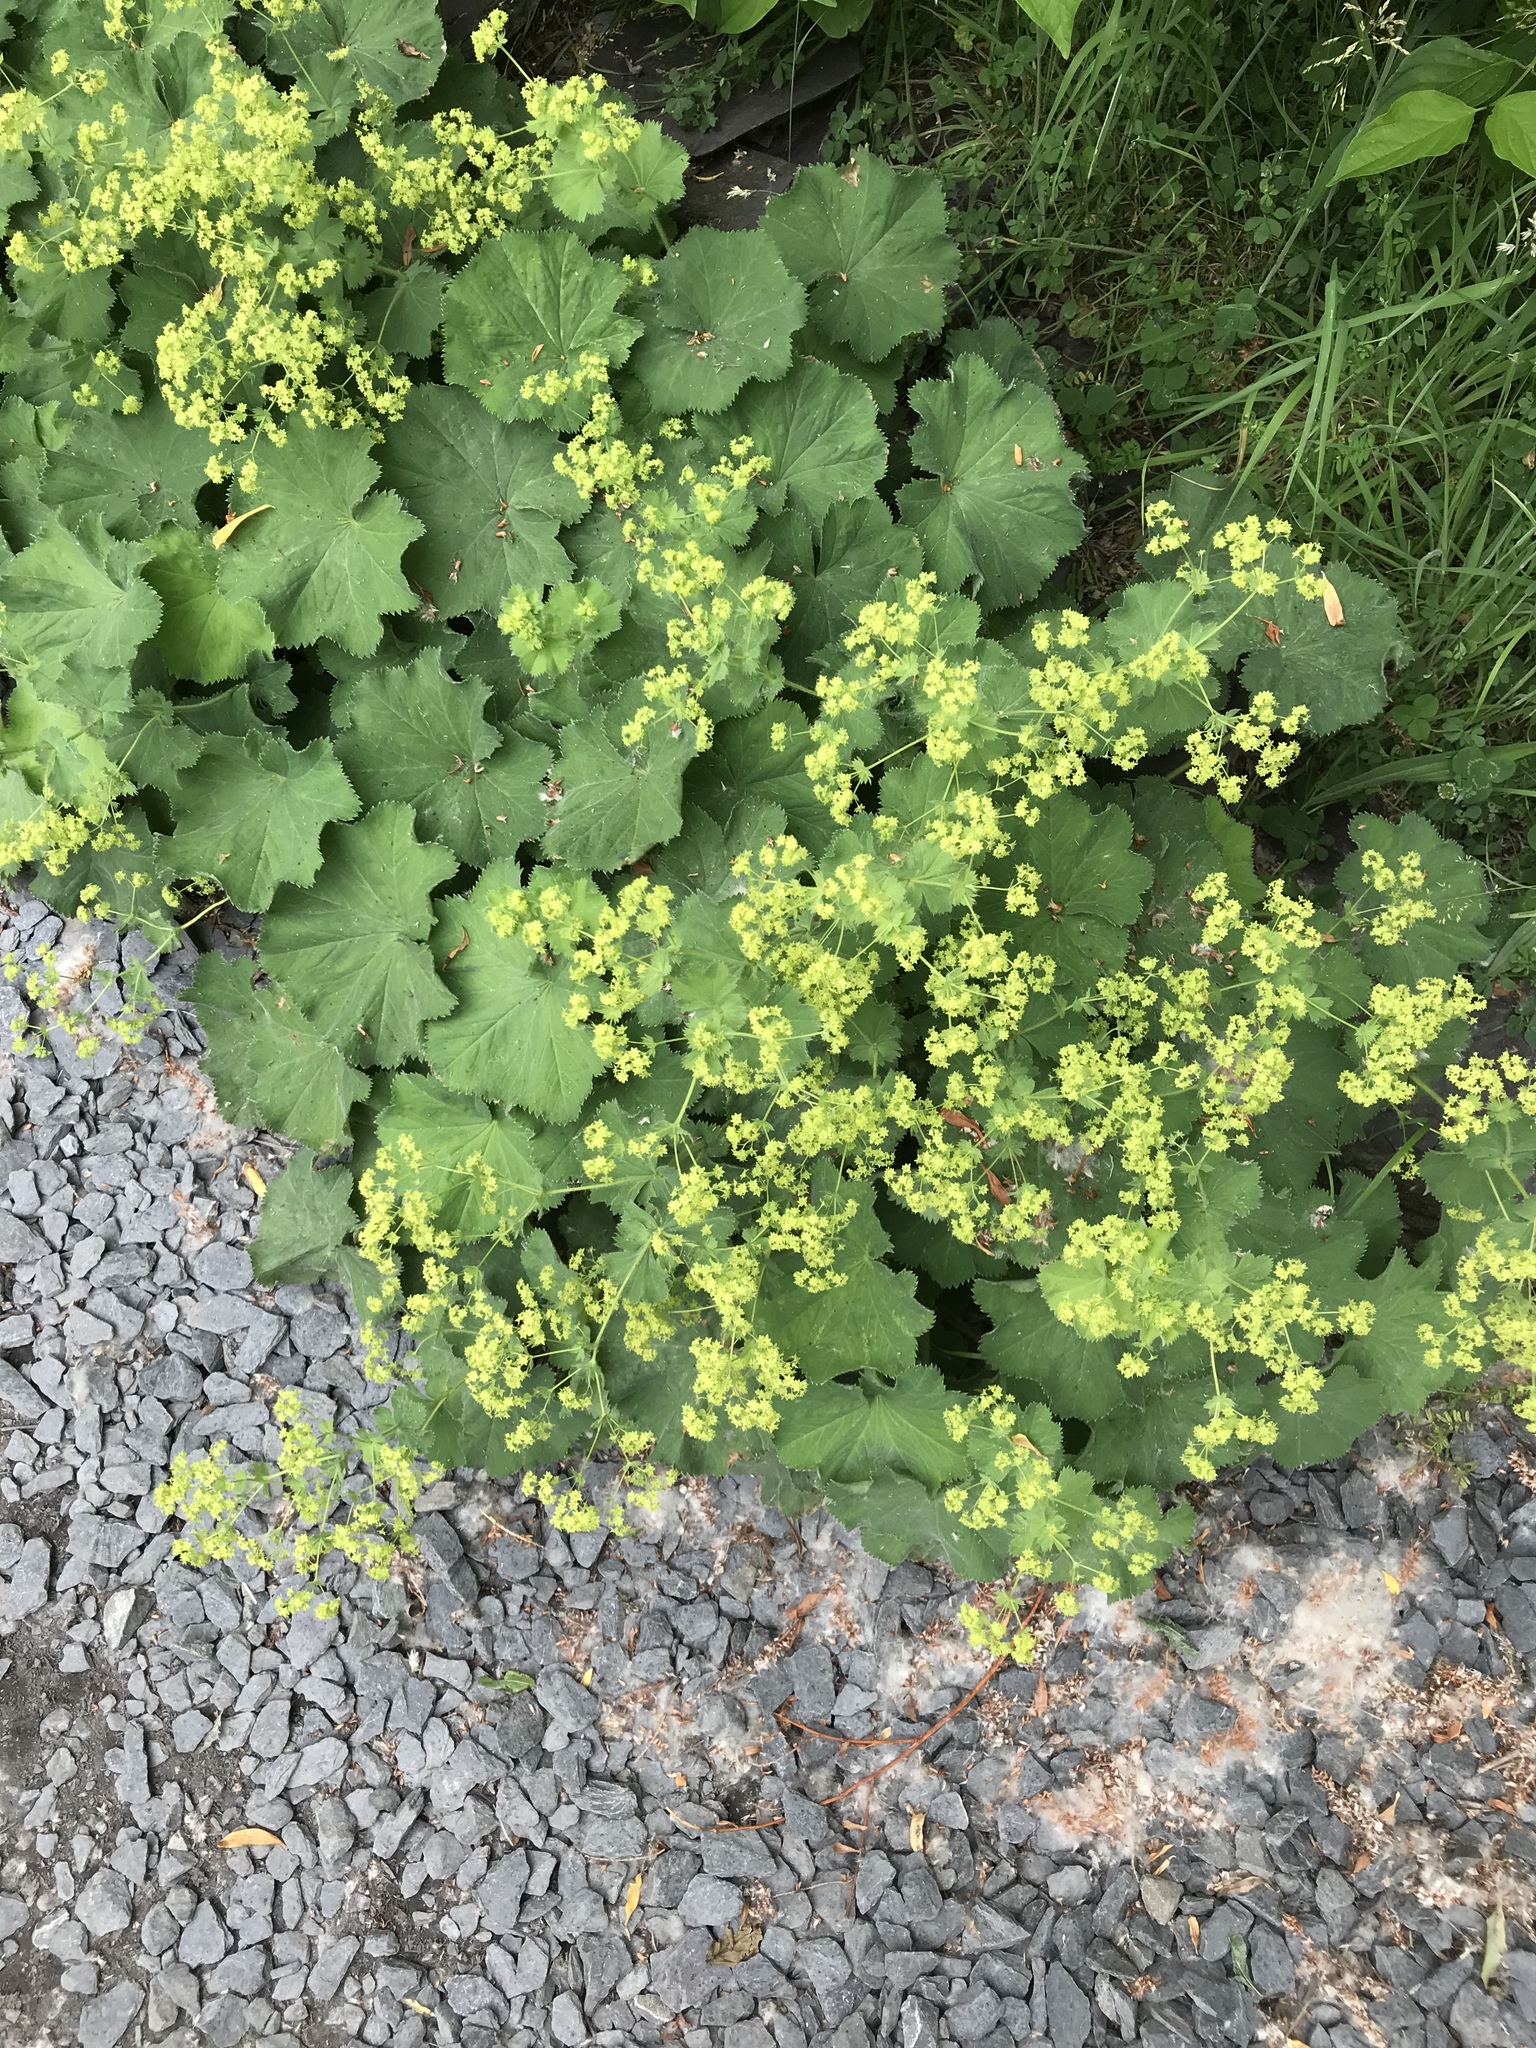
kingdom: Plantae
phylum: Tracheophyta
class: Magnoliopsida
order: Rosales
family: Rosaceae
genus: Alchemilla
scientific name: Alchemilla mollis
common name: Lady's-mantle
